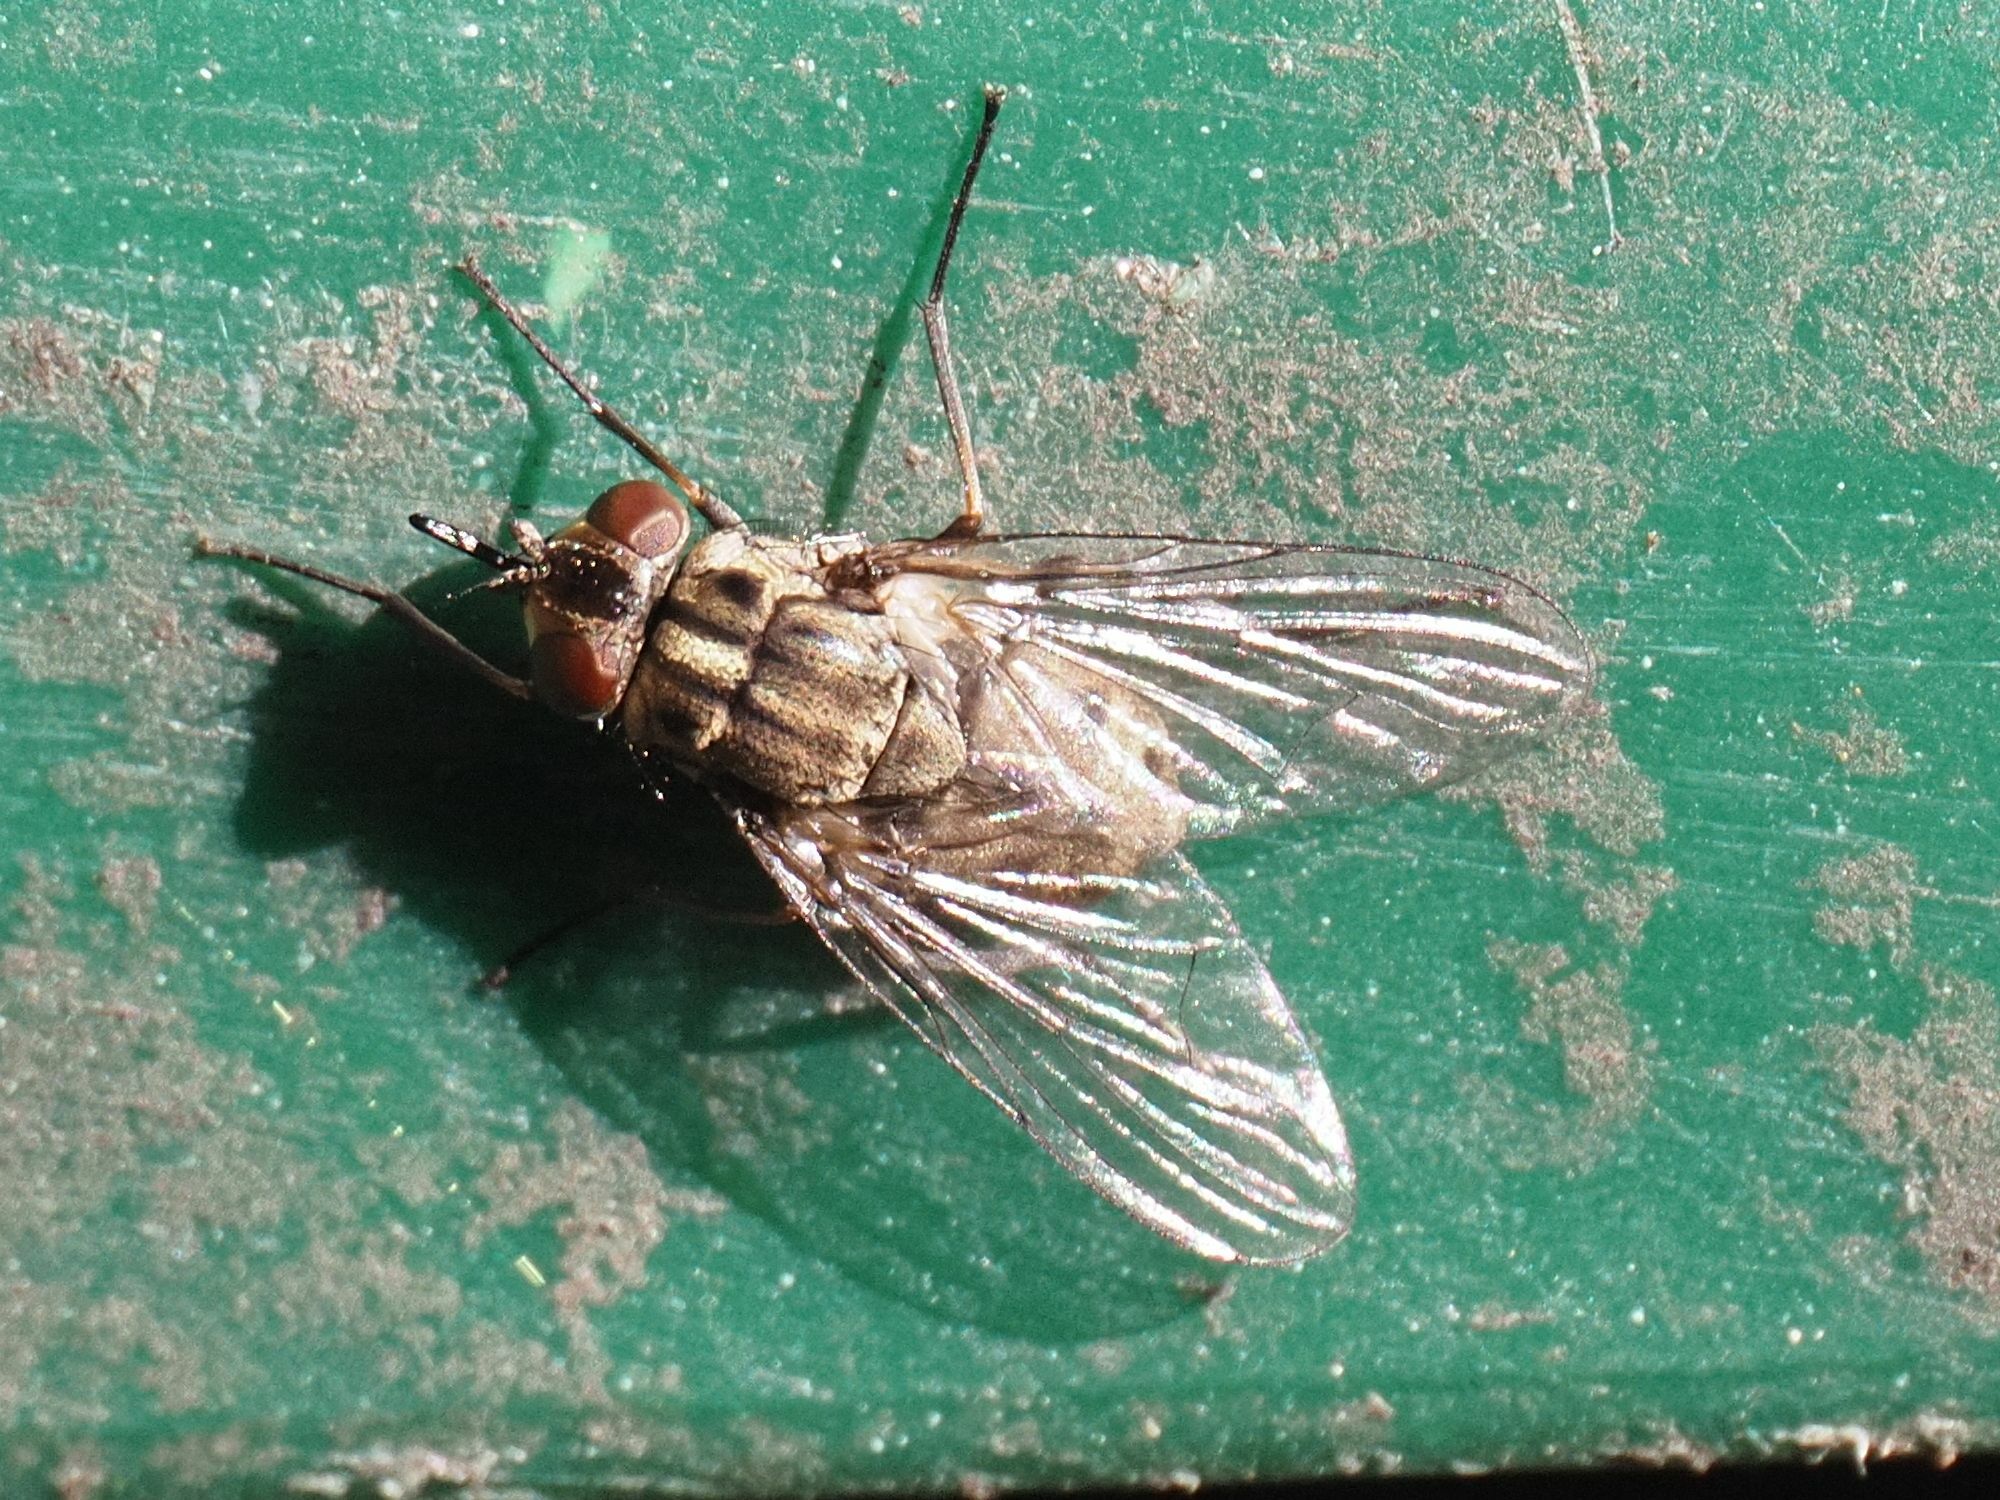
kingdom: Animalia
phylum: Arthropoda
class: Insecta
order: Diptera
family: Muscidae
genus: Stomoxys
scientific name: Stomoxys calcitrans
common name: Stable fly
